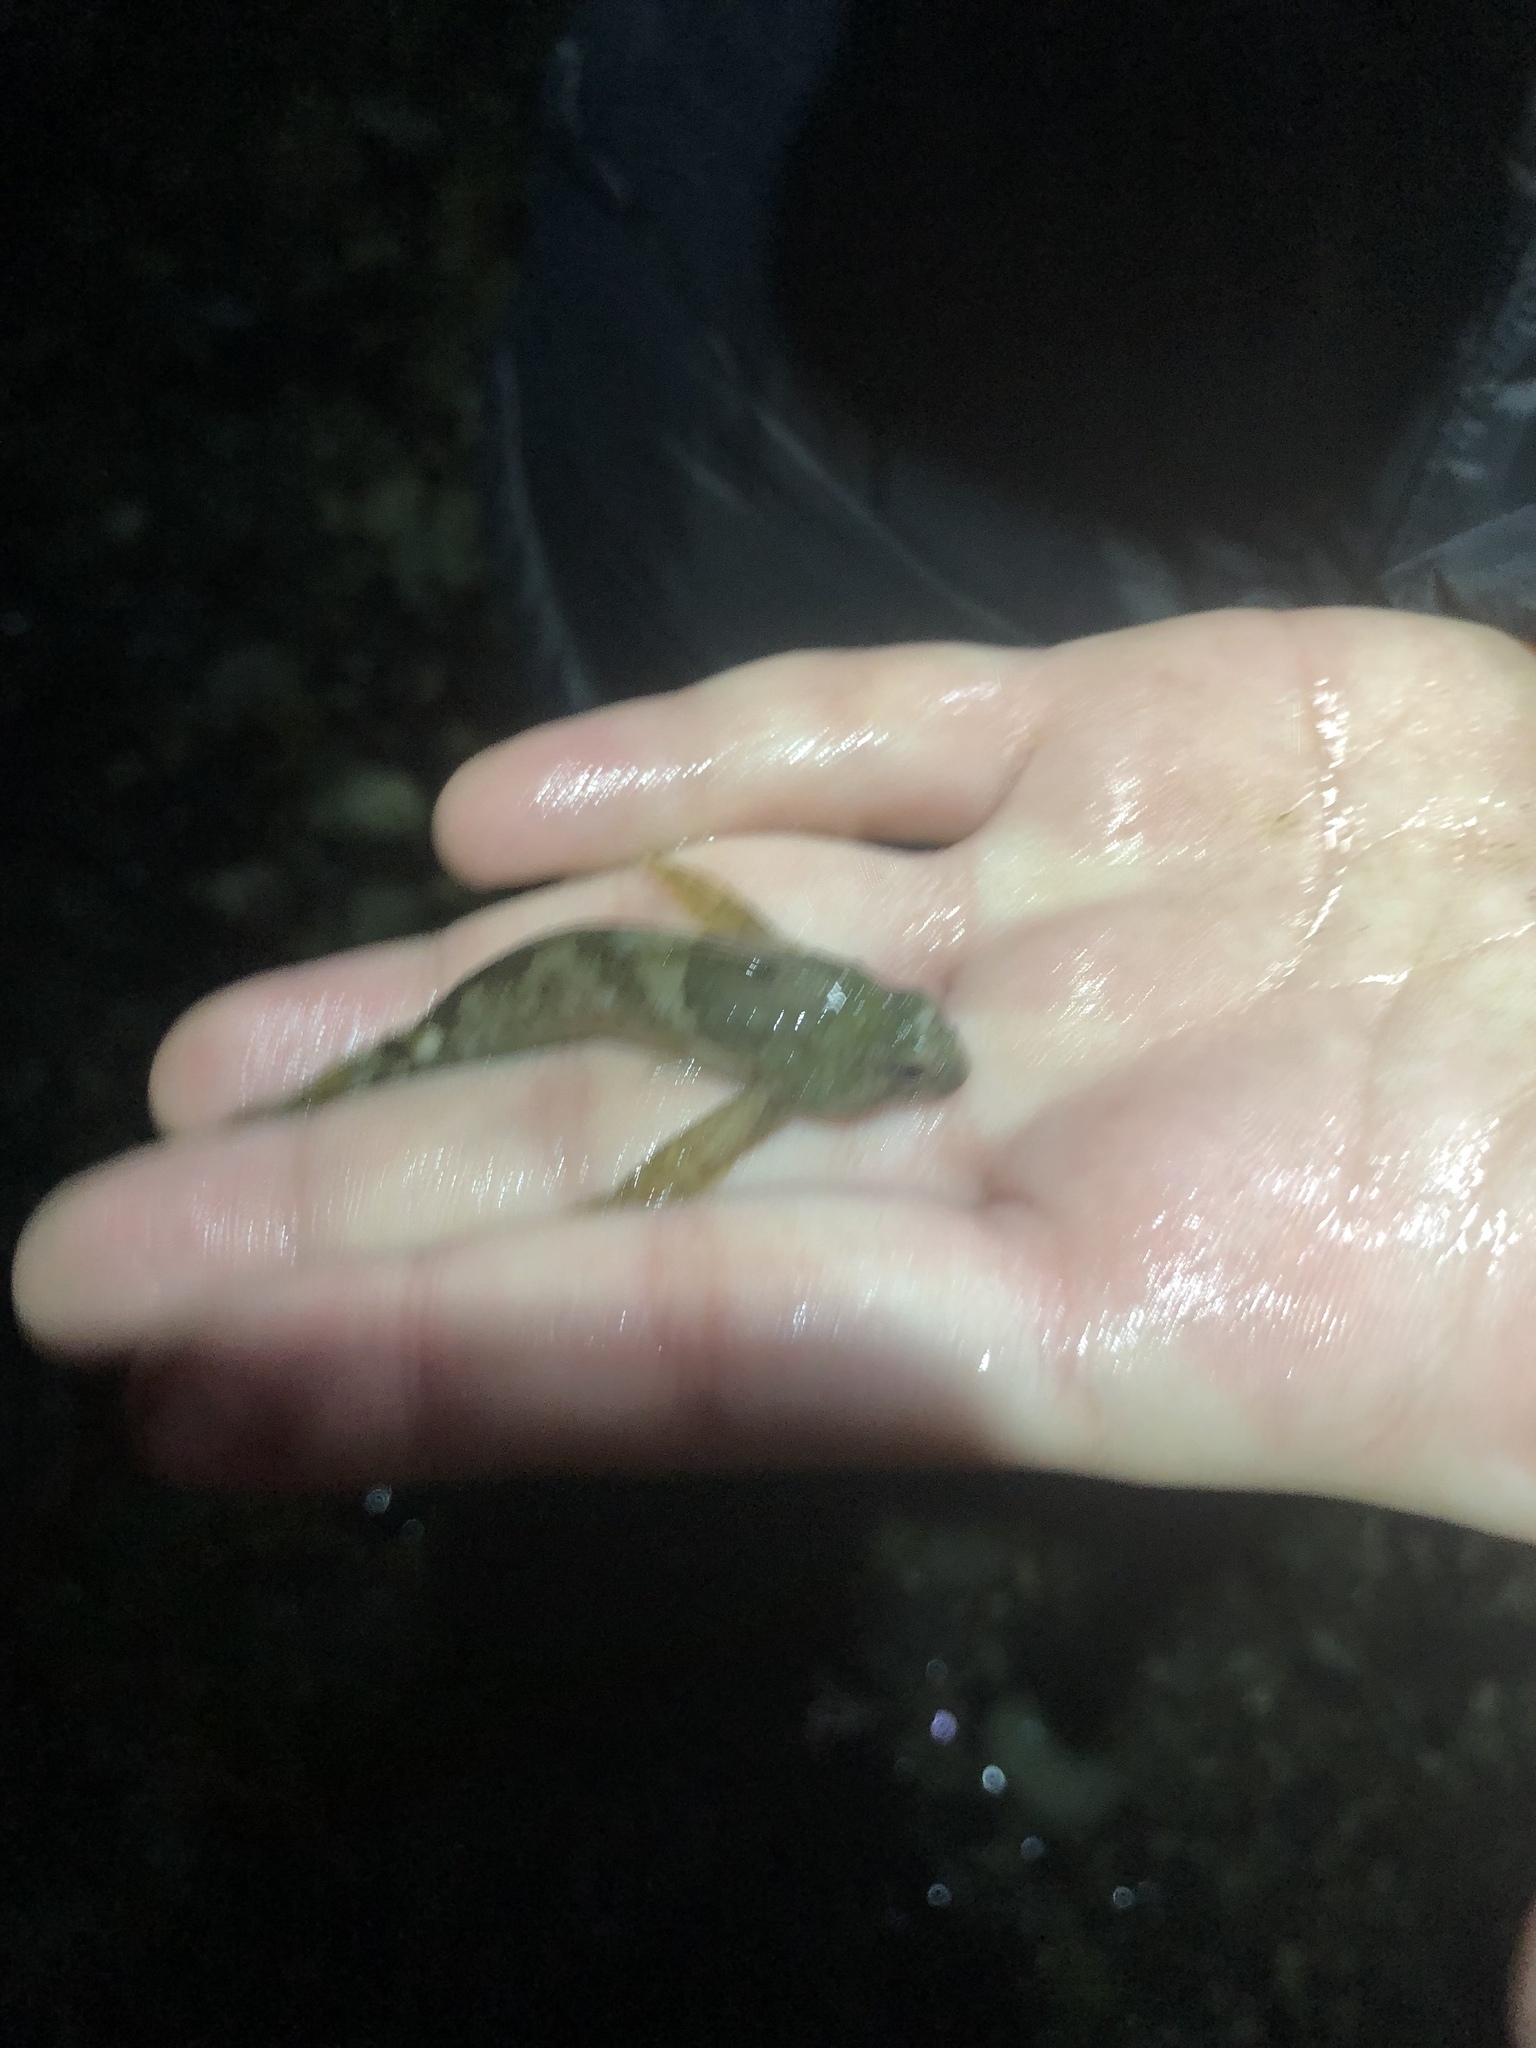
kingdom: Animalia
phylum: Chordata
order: Scorpaeniformes
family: Cottidae
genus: Oligocottus
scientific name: Oligocottus maculosus
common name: Tidepool sculpin
